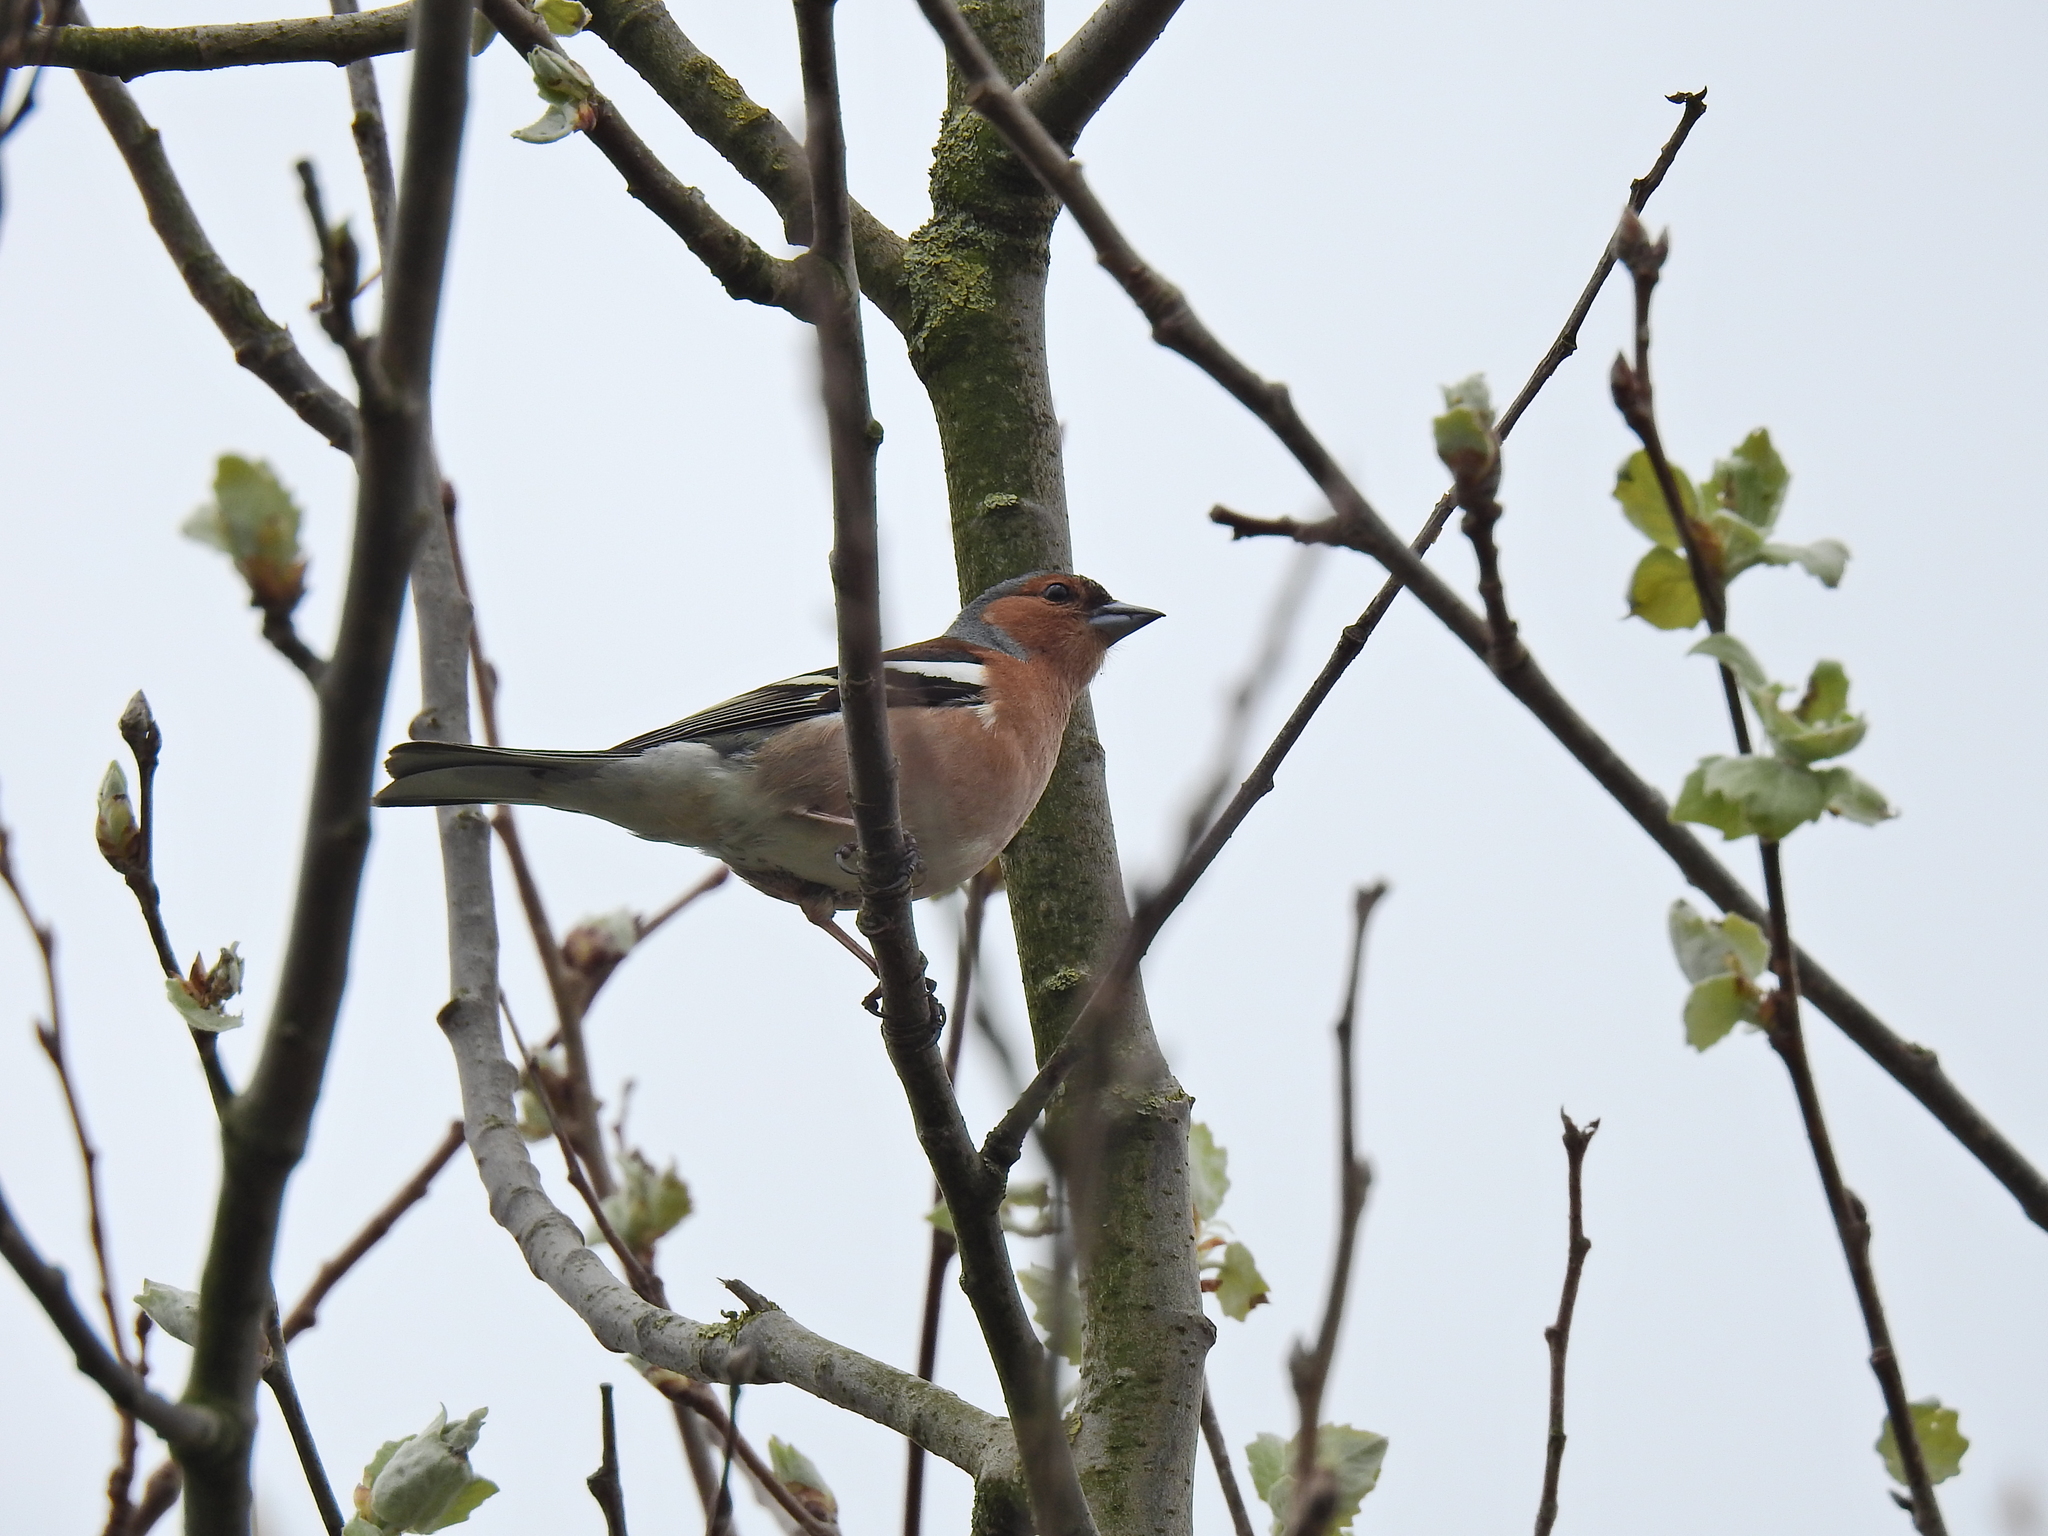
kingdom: Animalia
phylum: Chordata
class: Aves
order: Passeriformes
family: Fringillidae
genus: Fringilla
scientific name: Fringilla coelebs
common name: Common chaffinch
